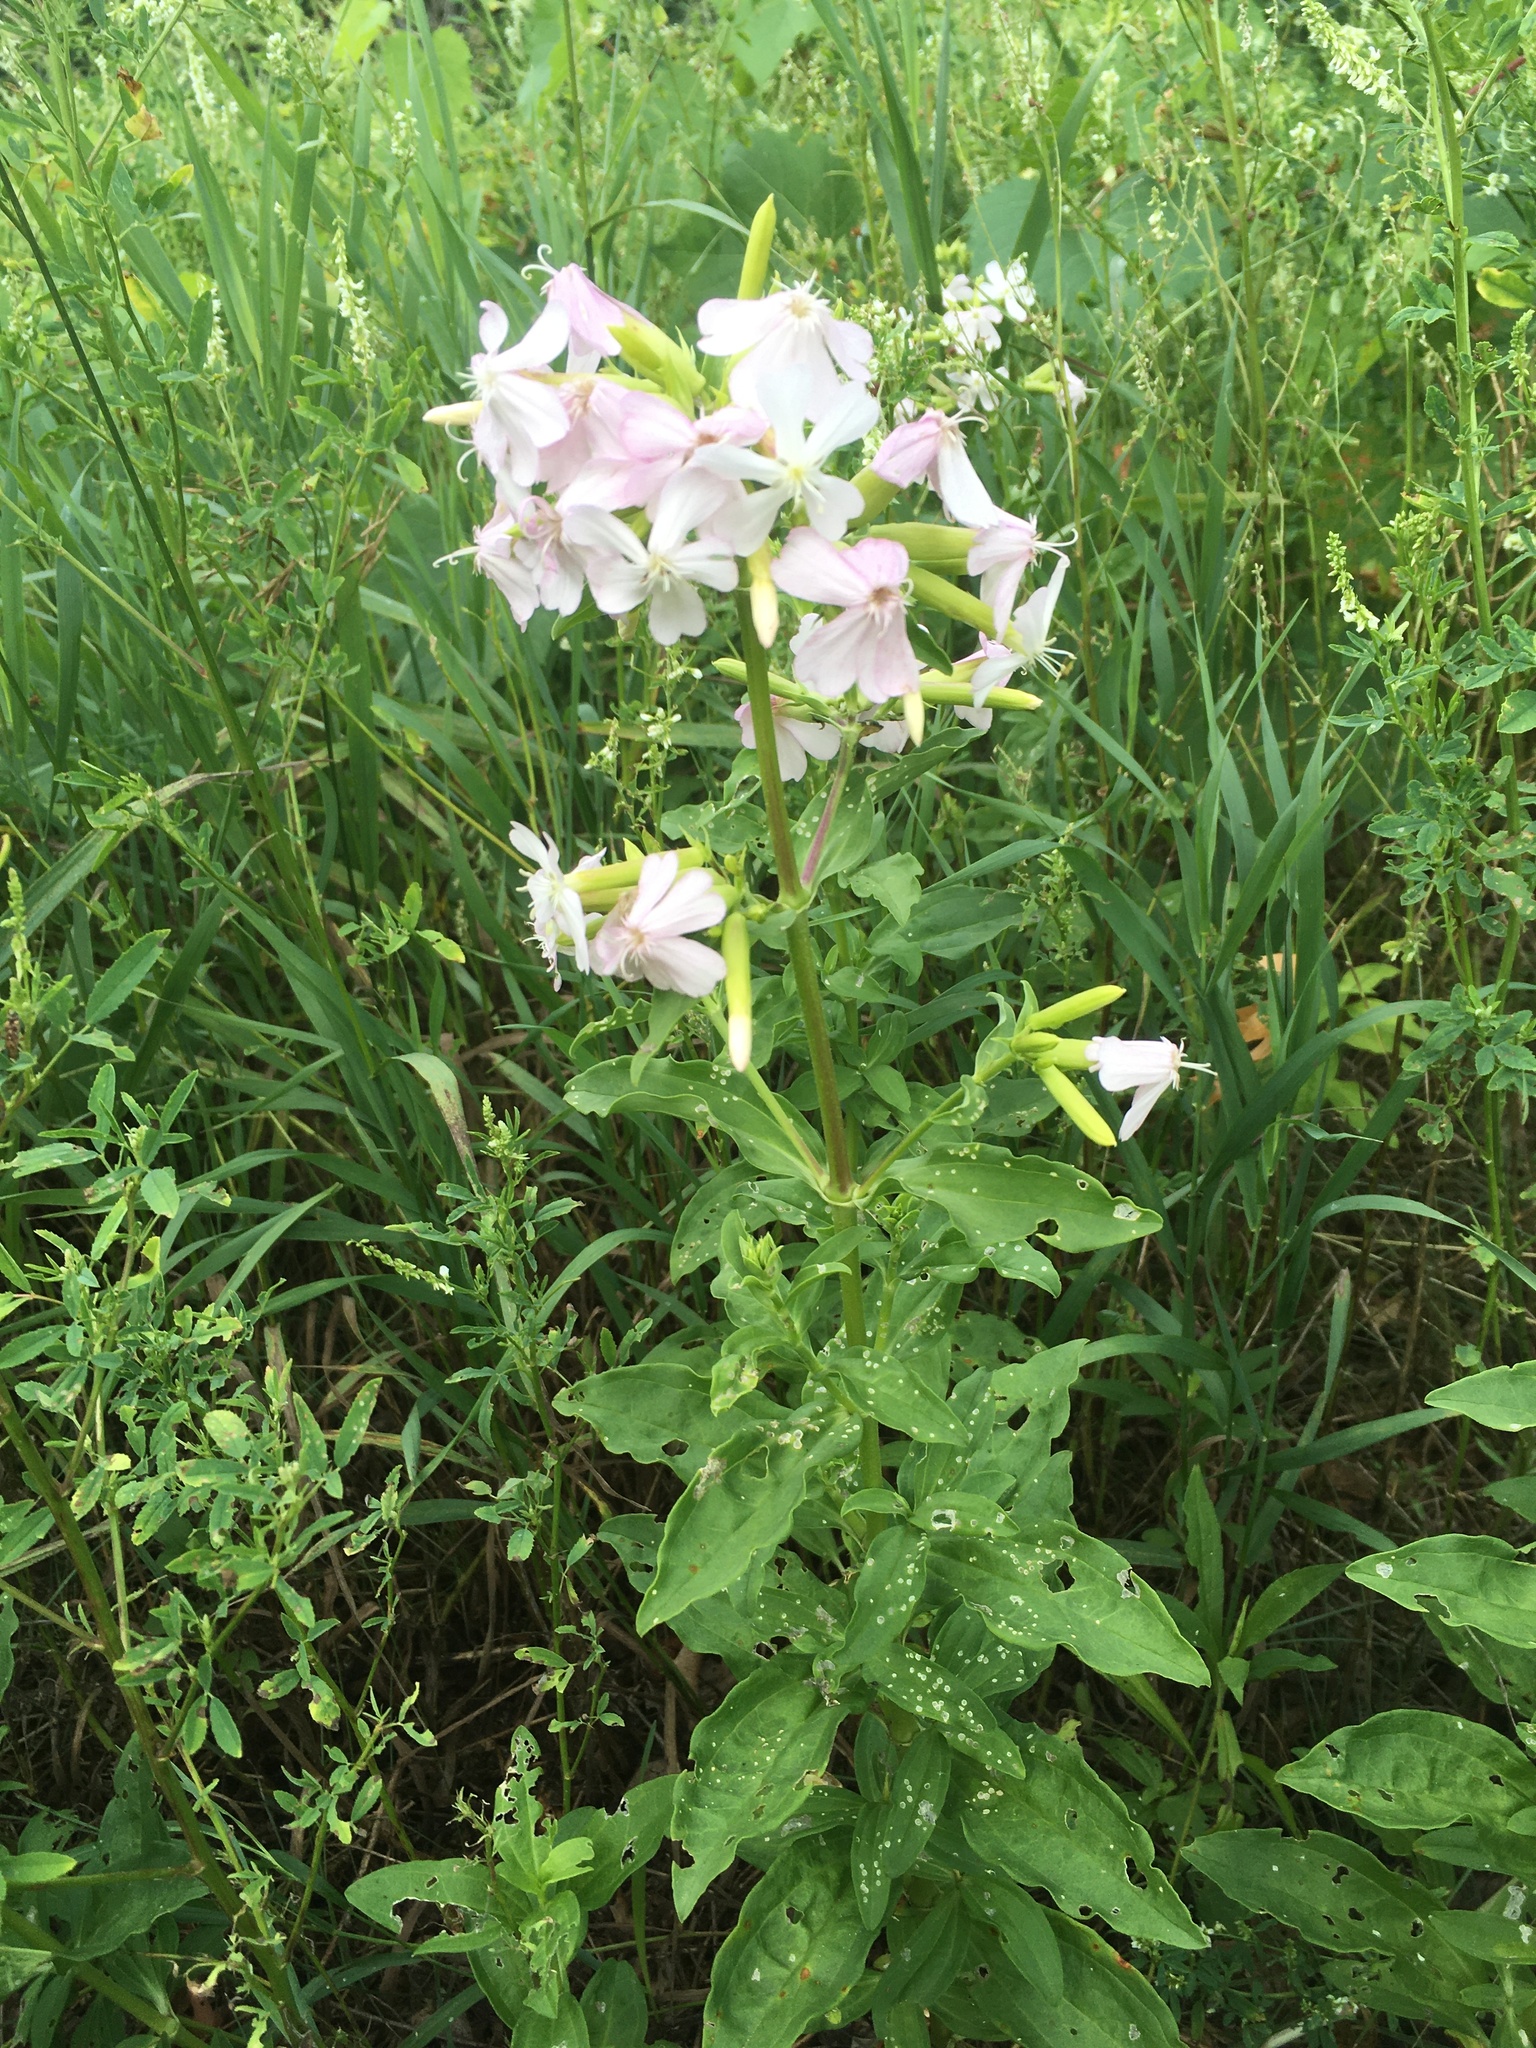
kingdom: Plantae
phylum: Tracheophyta
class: Magnoliopsida
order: Caryophyllales
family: Caryophyllaceae
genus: Saponaria
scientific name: Saponaria officinalis
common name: Soapwort
